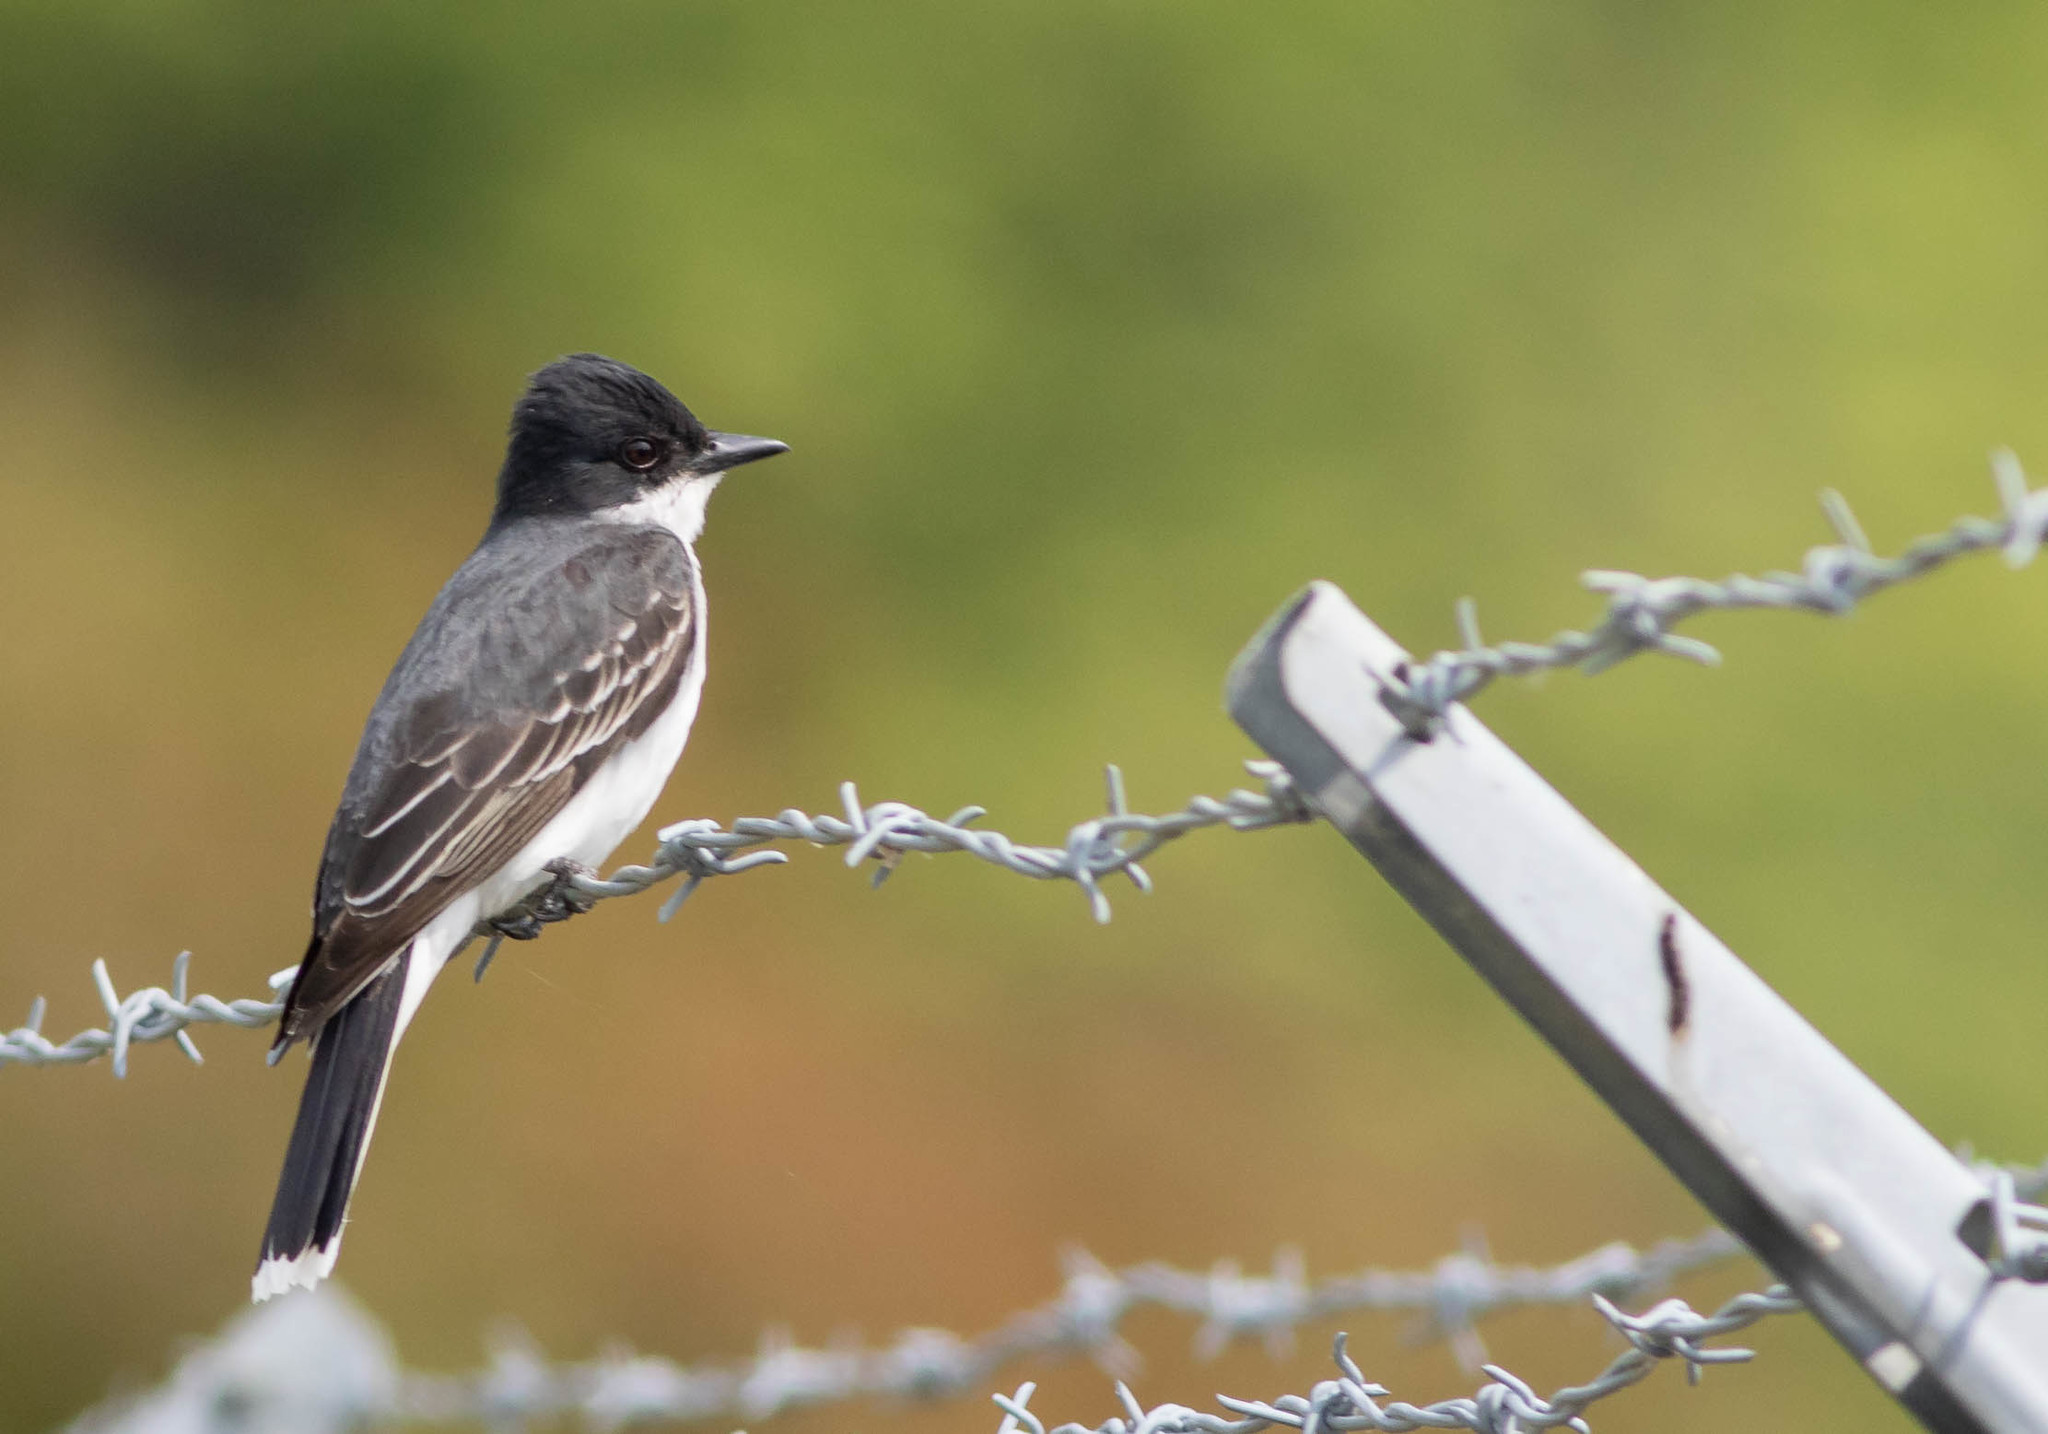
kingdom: Animalia
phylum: Chordata
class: Aves
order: Passeriformes
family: Tyrannidae
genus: Tyrannus
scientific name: Tyrannus tyrannus
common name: Eastern kingbird
